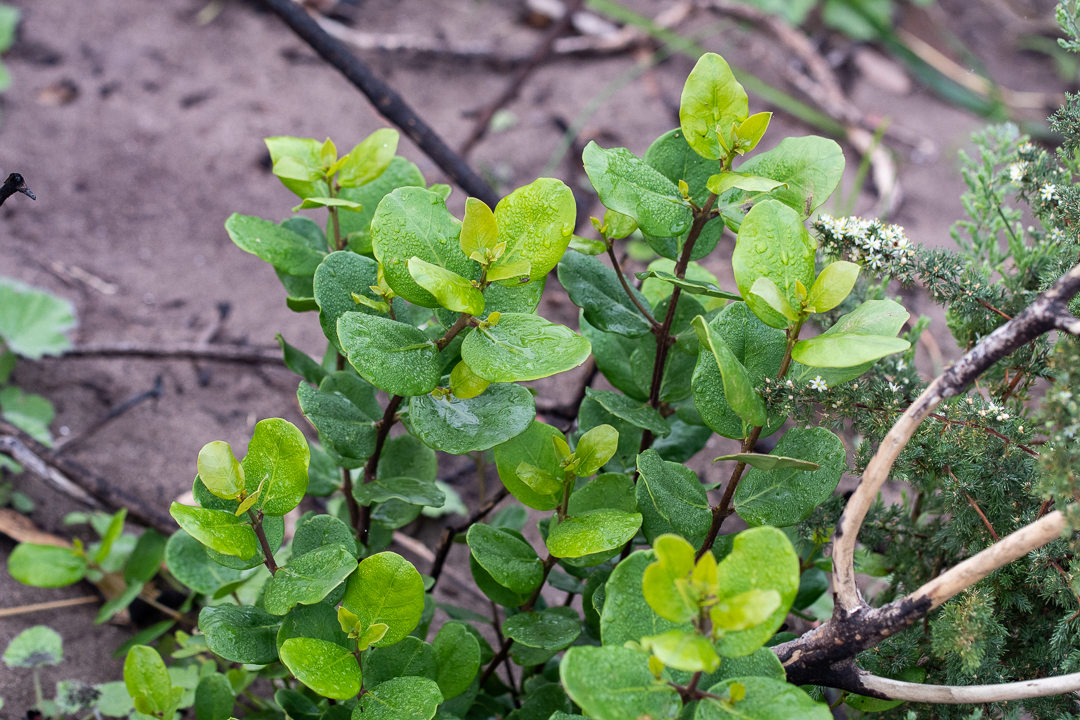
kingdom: Plantae
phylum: Tracheophyta
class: Magnoliopsida
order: Celastrales
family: Celastraceae
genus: Cassine
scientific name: Cassine peragua
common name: Cape saffron
